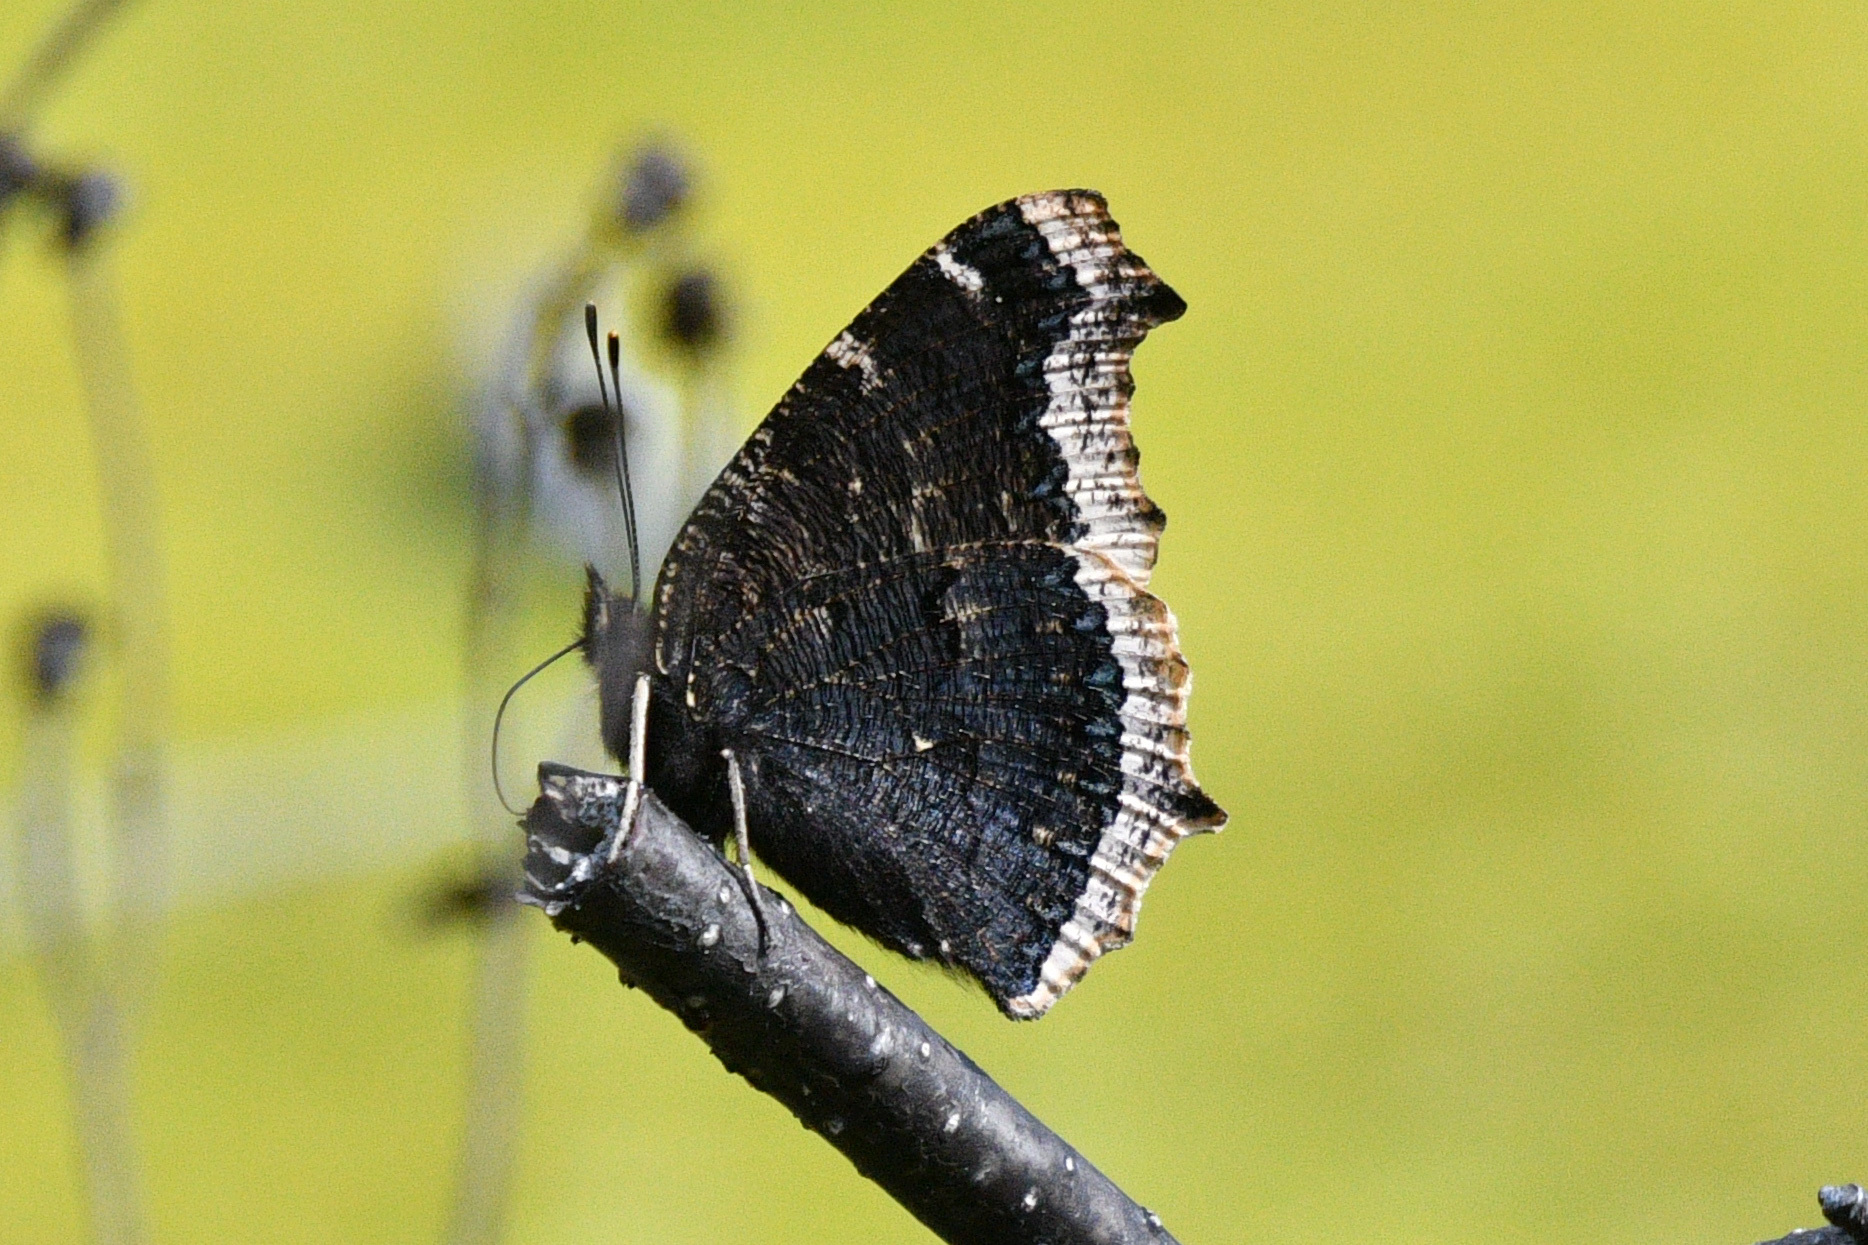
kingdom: Animalia
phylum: Arthropoda
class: Insecta
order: Lepidoptera
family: Nymphalidae
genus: Nymphalis
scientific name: Nymphalis antiopa
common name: Camberwell beauty
